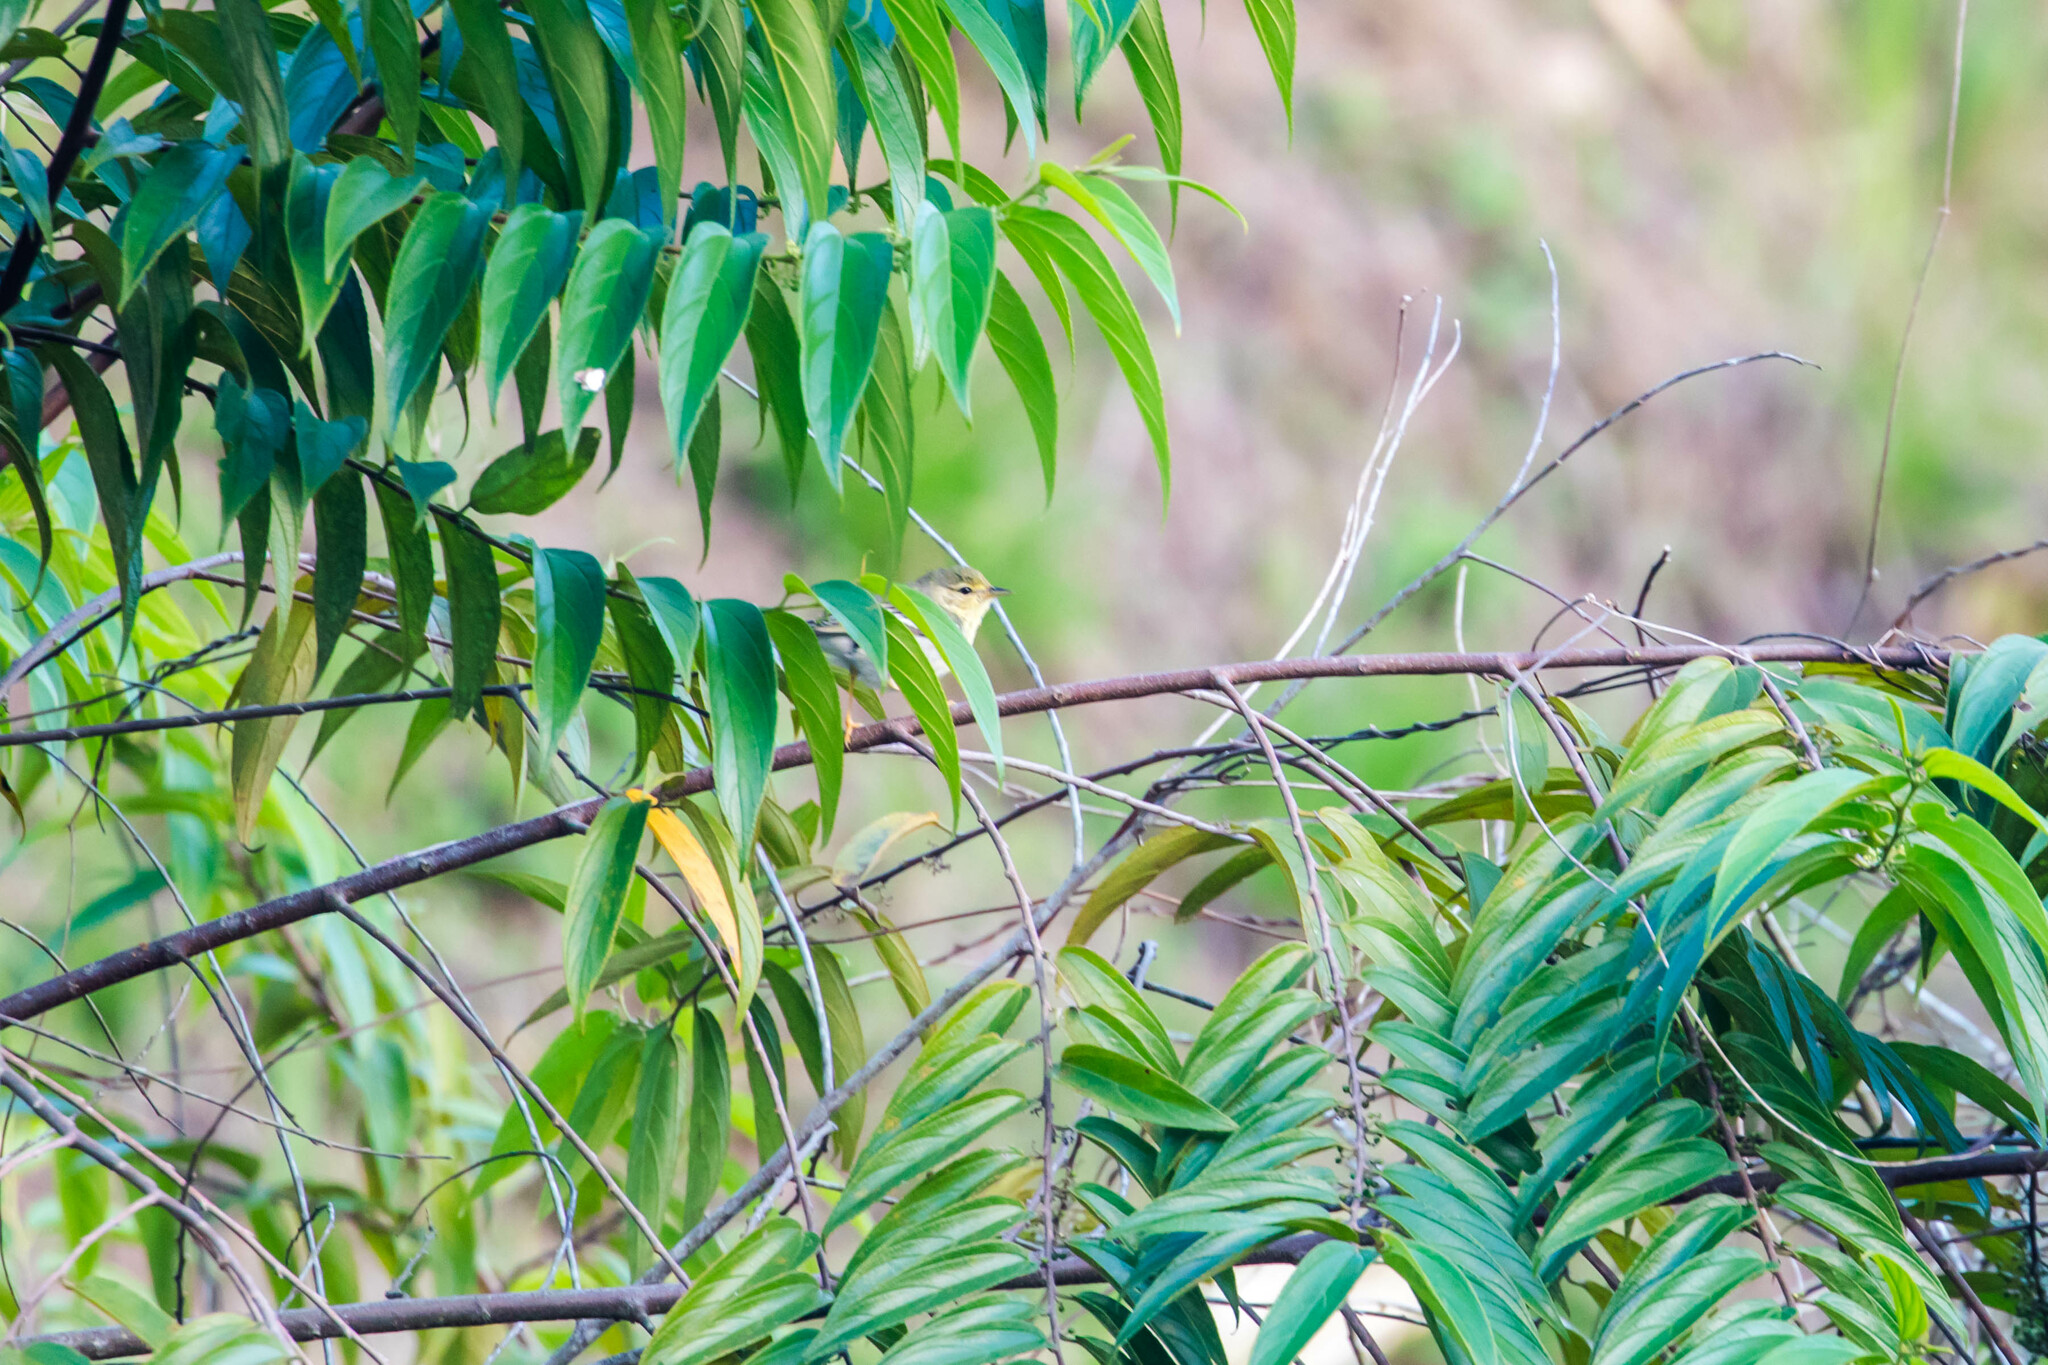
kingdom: Animalia
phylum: Chordata
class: Aves
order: Passeriformes
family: Parulidae
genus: Setophaga
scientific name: Setophaga striata
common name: Blackpoll warbler
